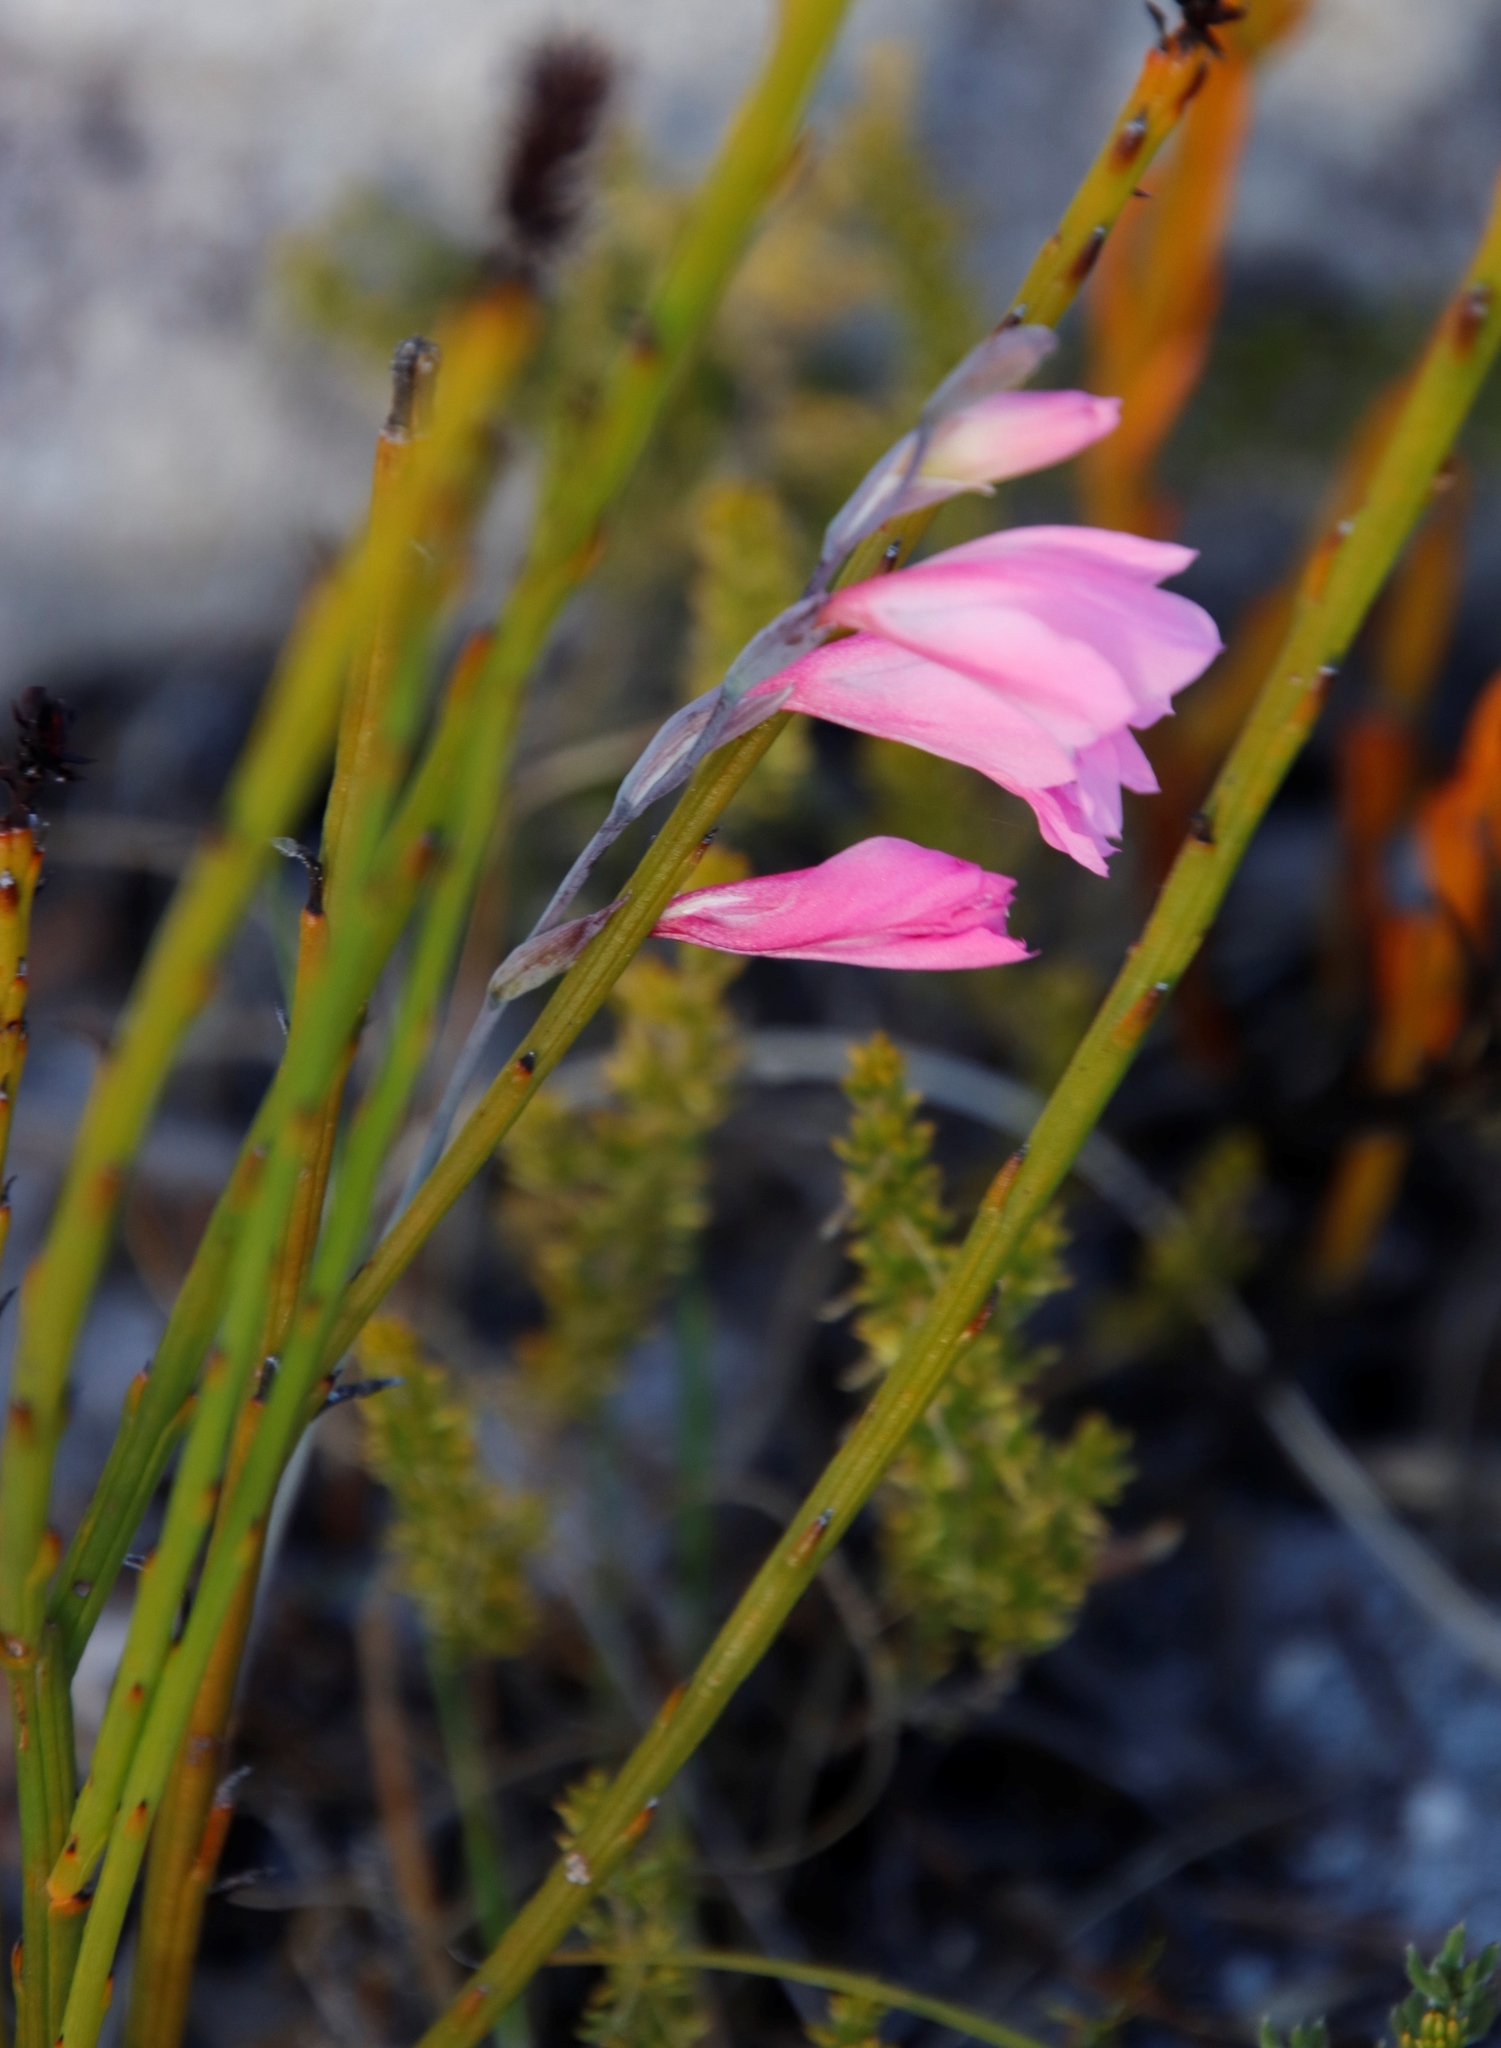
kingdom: Plantae
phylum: Tracheophyta
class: Liliopsida
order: Asparagales
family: Iridaceae
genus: Gladiolus
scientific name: Gladiolus brevifolius
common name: March pypie
